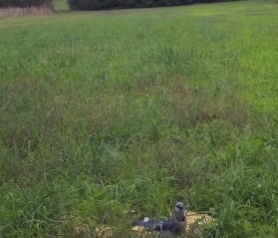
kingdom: Animalia
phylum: Chordata
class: Aves
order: Passeriformes
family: Corvidae
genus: Cyanocitta
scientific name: Cyanocitta cristata
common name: Blue jay
